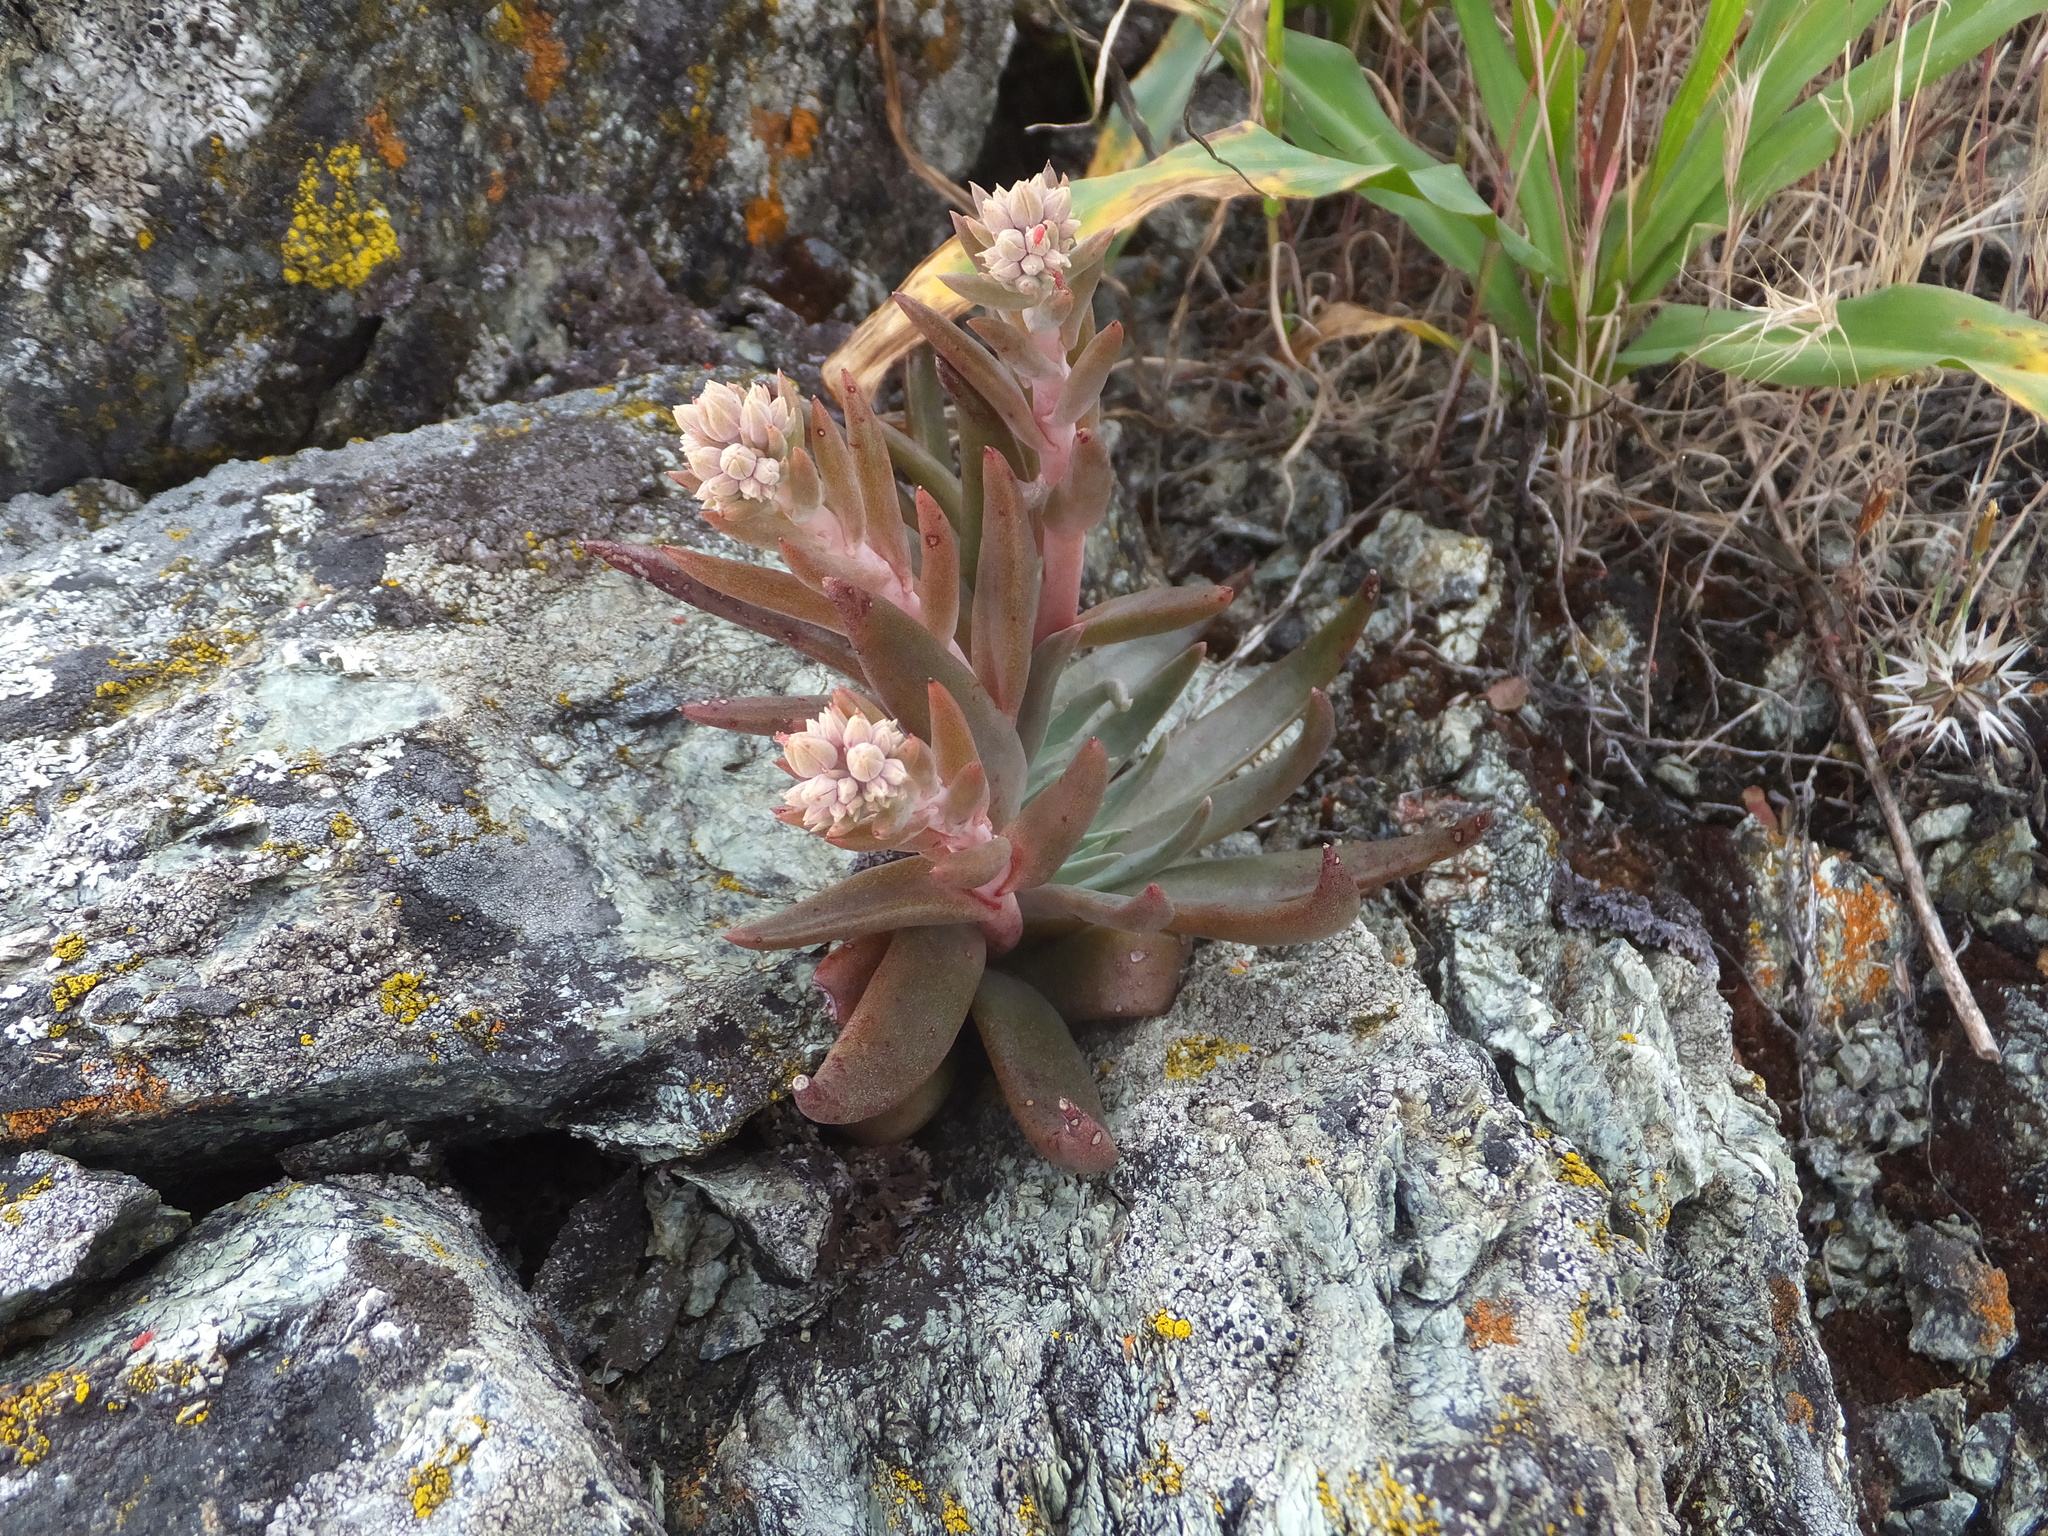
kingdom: Plantae
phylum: Tracheophyta
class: Magnoliopsida
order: Saxifragales
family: Crassulaceae
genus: Dudleya
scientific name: Dudleya abramsii
